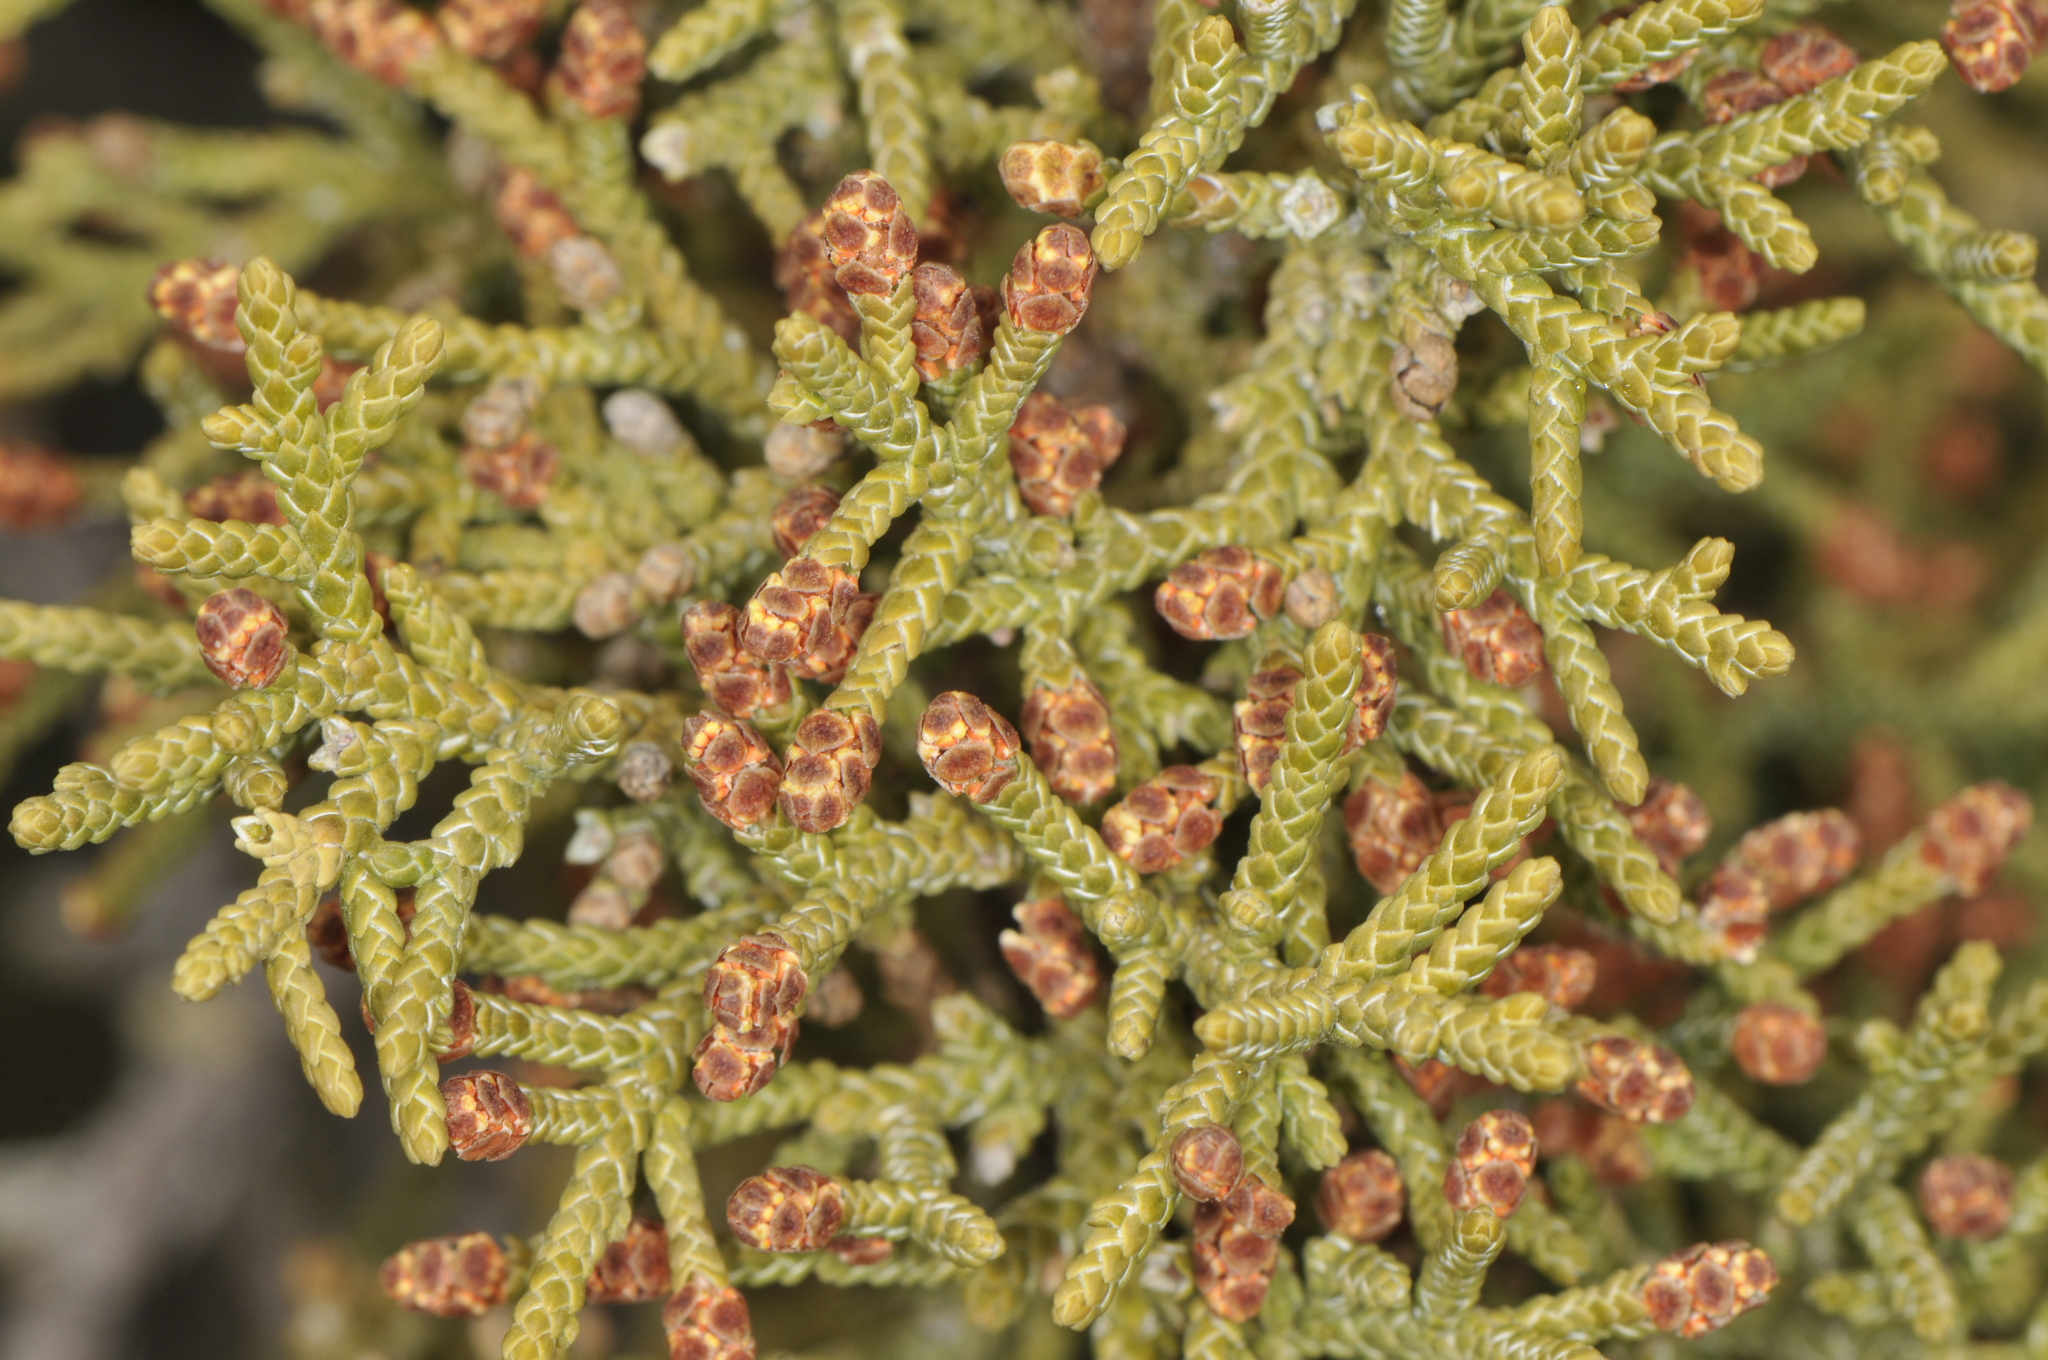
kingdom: Plantae
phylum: Tracheophyta
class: Pinopsida
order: Pinales
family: Cupressaceae
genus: Juniperus
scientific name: Juniperus monosperma
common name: One-seed juniper
